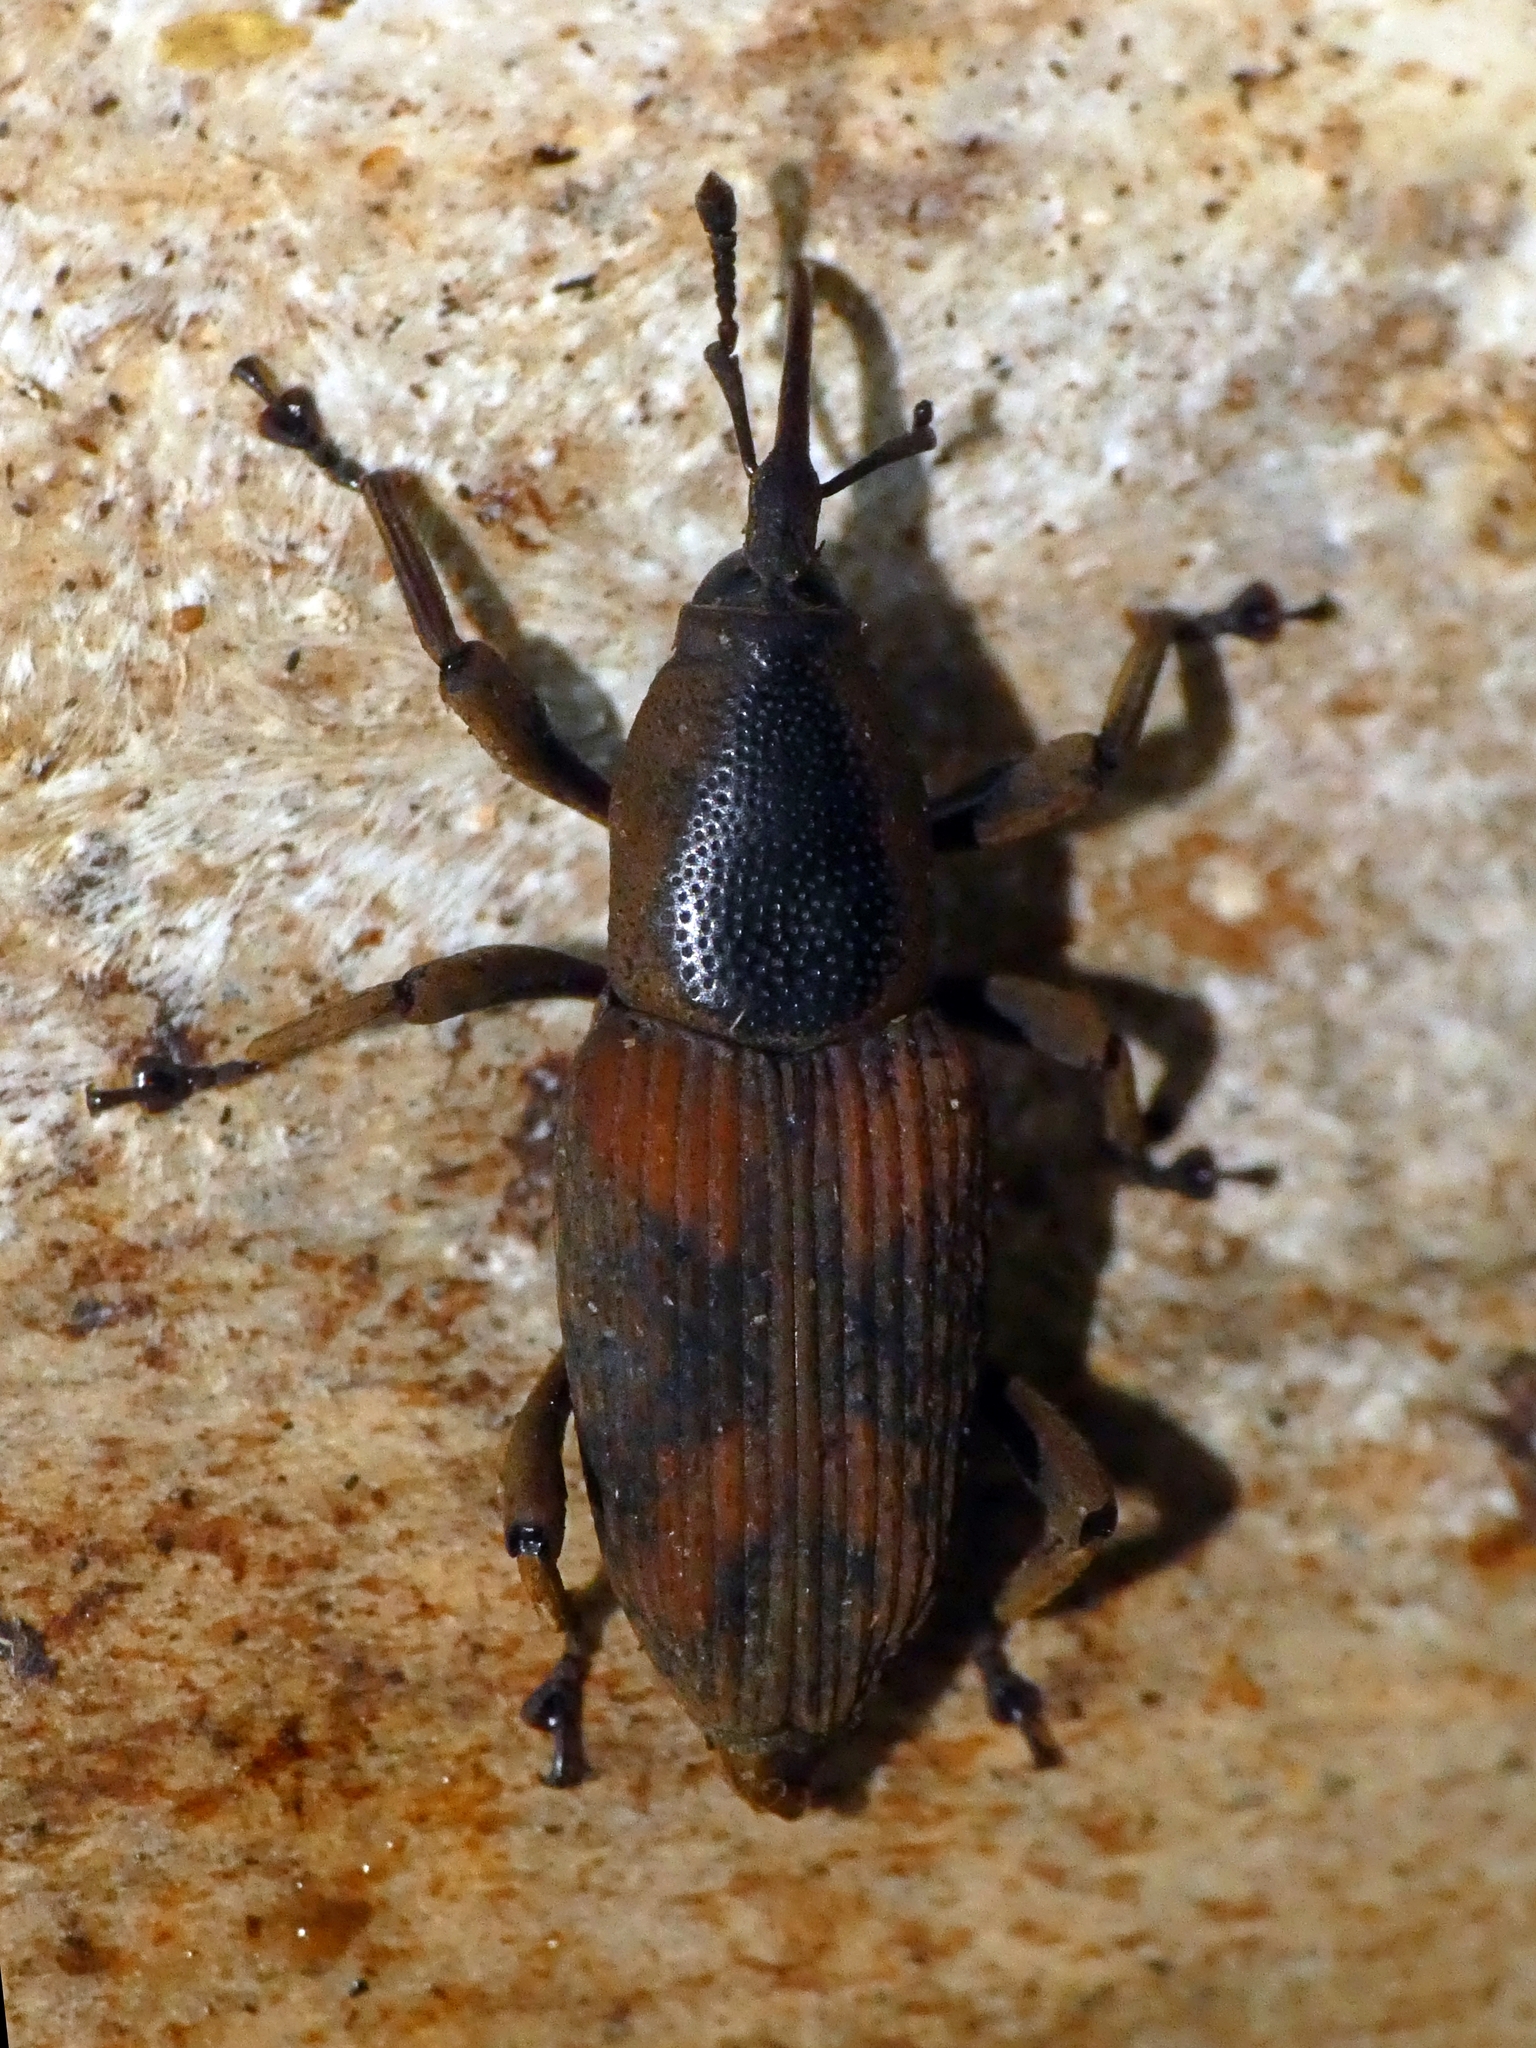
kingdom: Animalia
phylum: Arthropoda
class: Insecta
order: Coleoptera
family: Dryophthoridae
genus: Rhabdoscelus
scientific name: Rhabdoscelus obscurus
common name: Cane weevil borer
